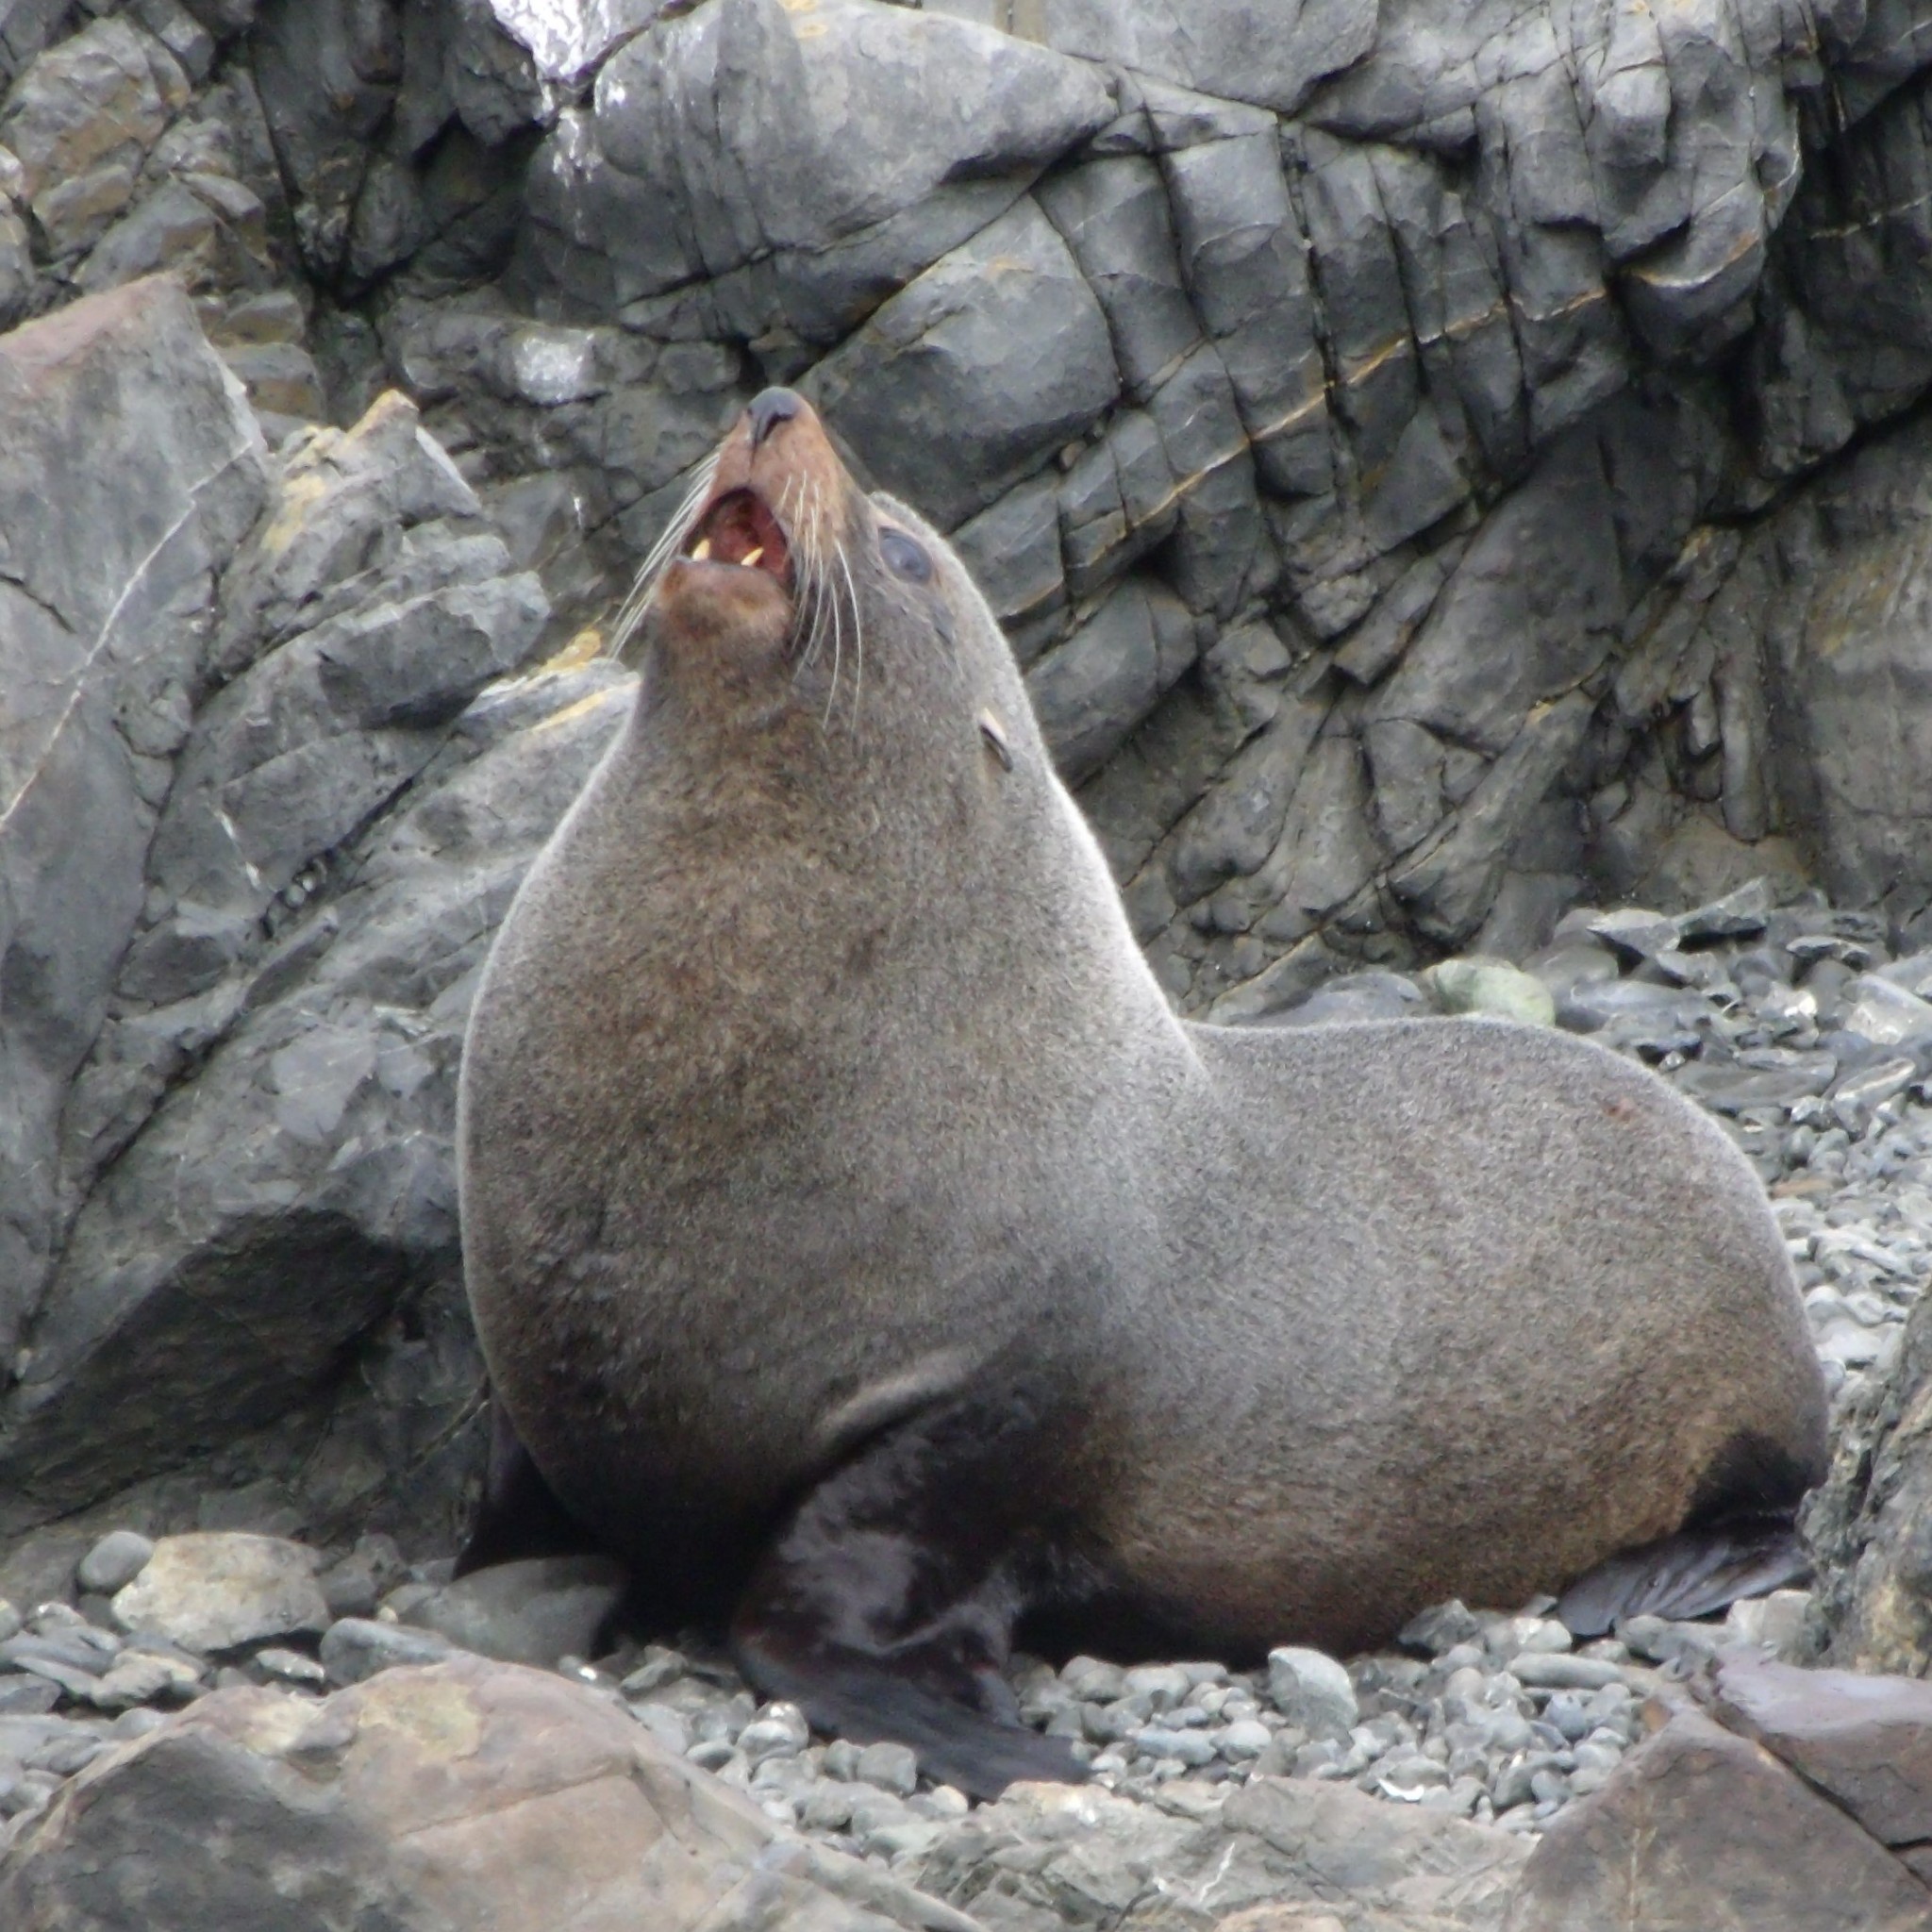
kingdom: Animalia
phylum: Chordata
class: Mammalia
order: Carnivora
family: Otariidae
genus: Arctocephalus
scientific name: Arctocephalus forsteri
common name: New zealand fur seal
